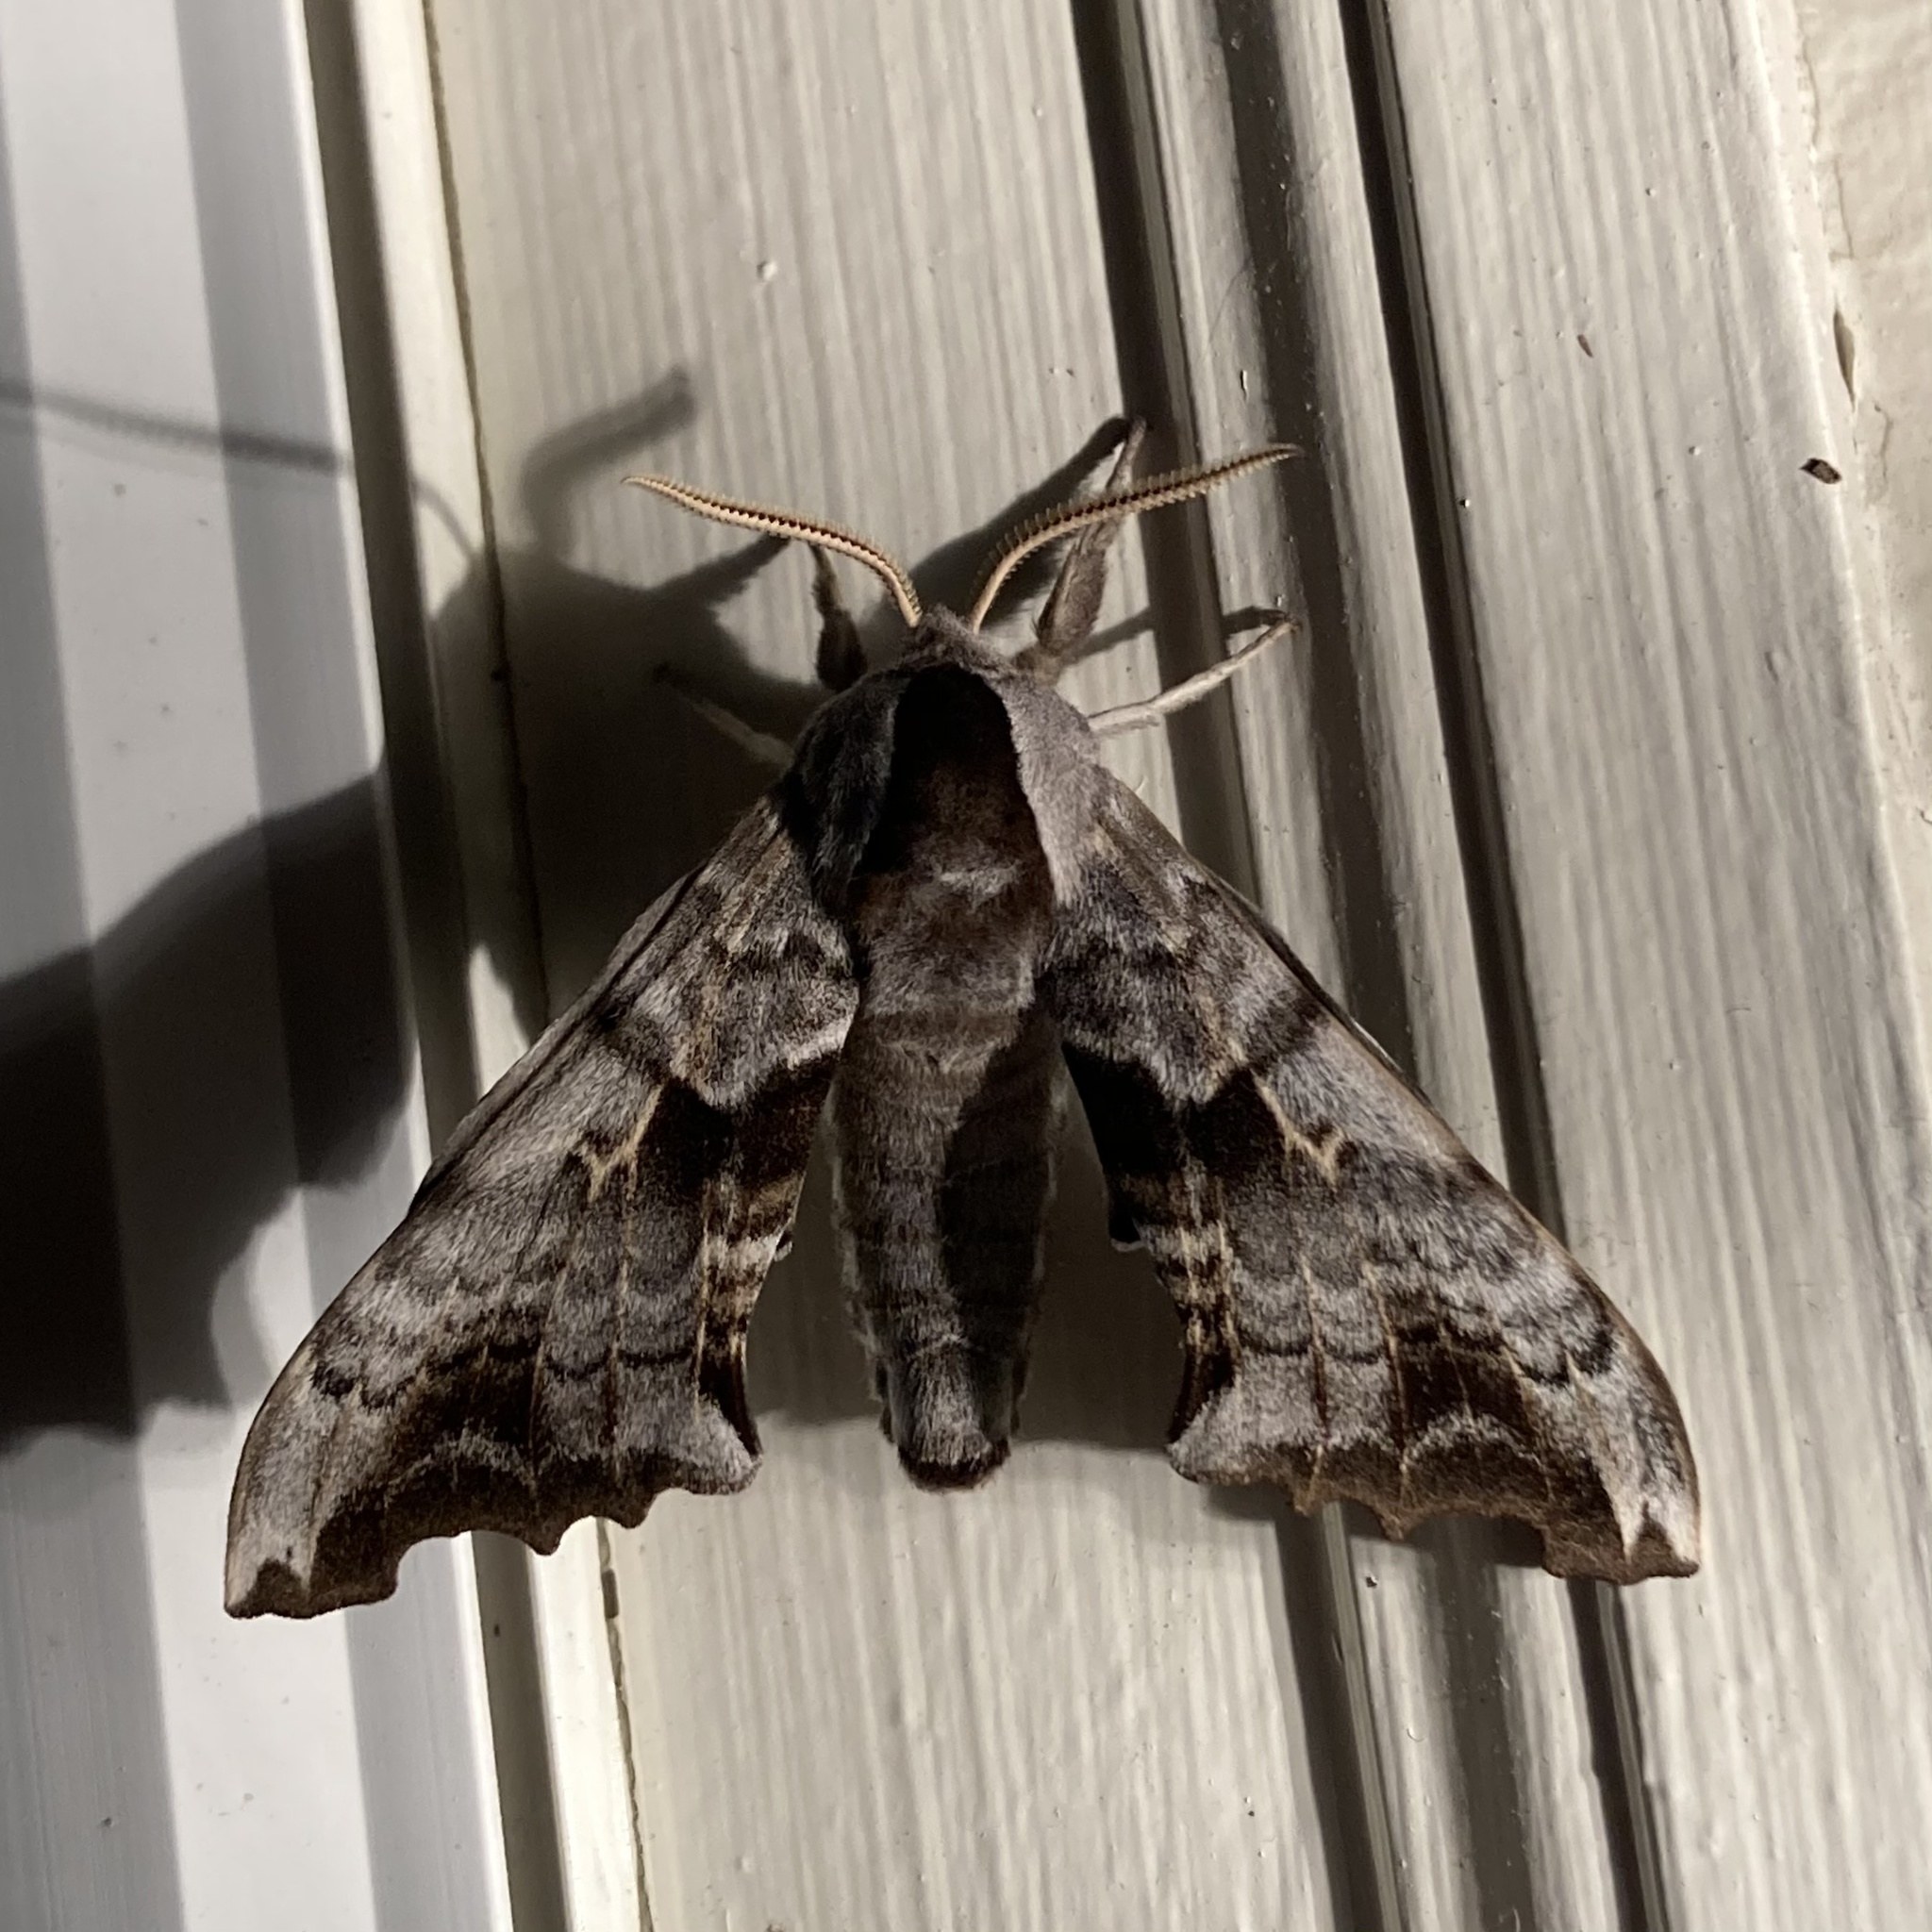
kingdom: Animalia
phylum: Arthropoda
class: Insecta
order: Lepidoptera
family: Sphingidae
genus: Smerinthus
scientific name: Smerinthus cerisyi
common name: Cerisy's sphinx moth
